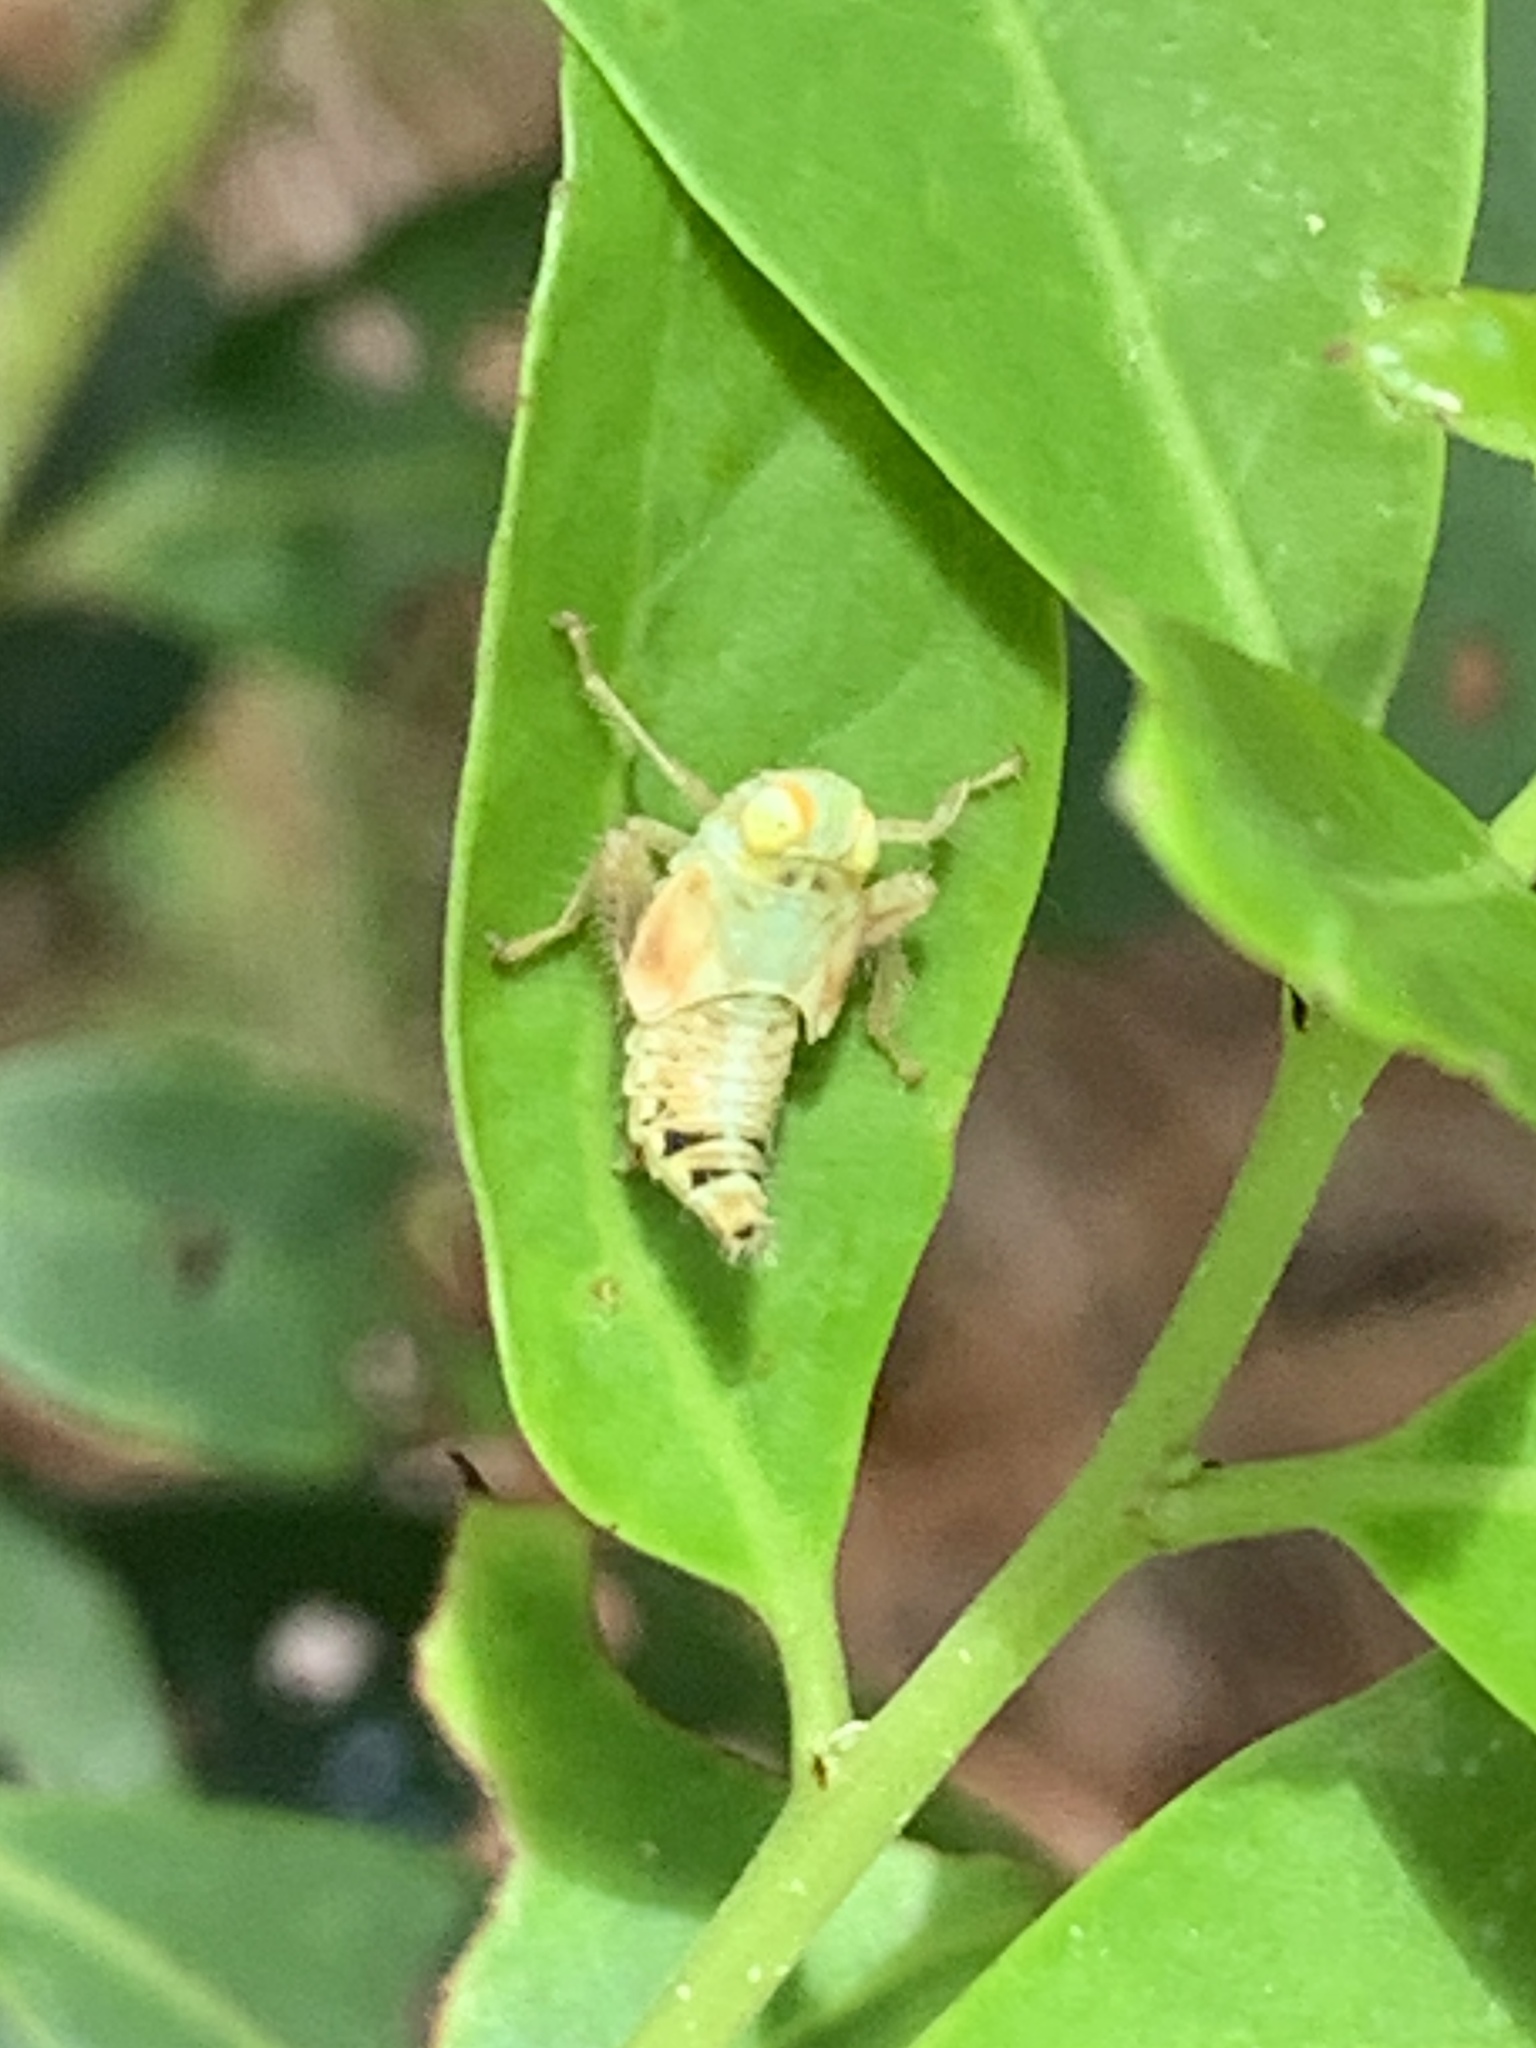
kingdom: Animalia
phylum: Arthropoda
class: Insecta
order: Hemiptera
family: Cicadellidae
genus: Jikradia
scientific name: Jikradia olitoria
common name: Coppery leafhopper
